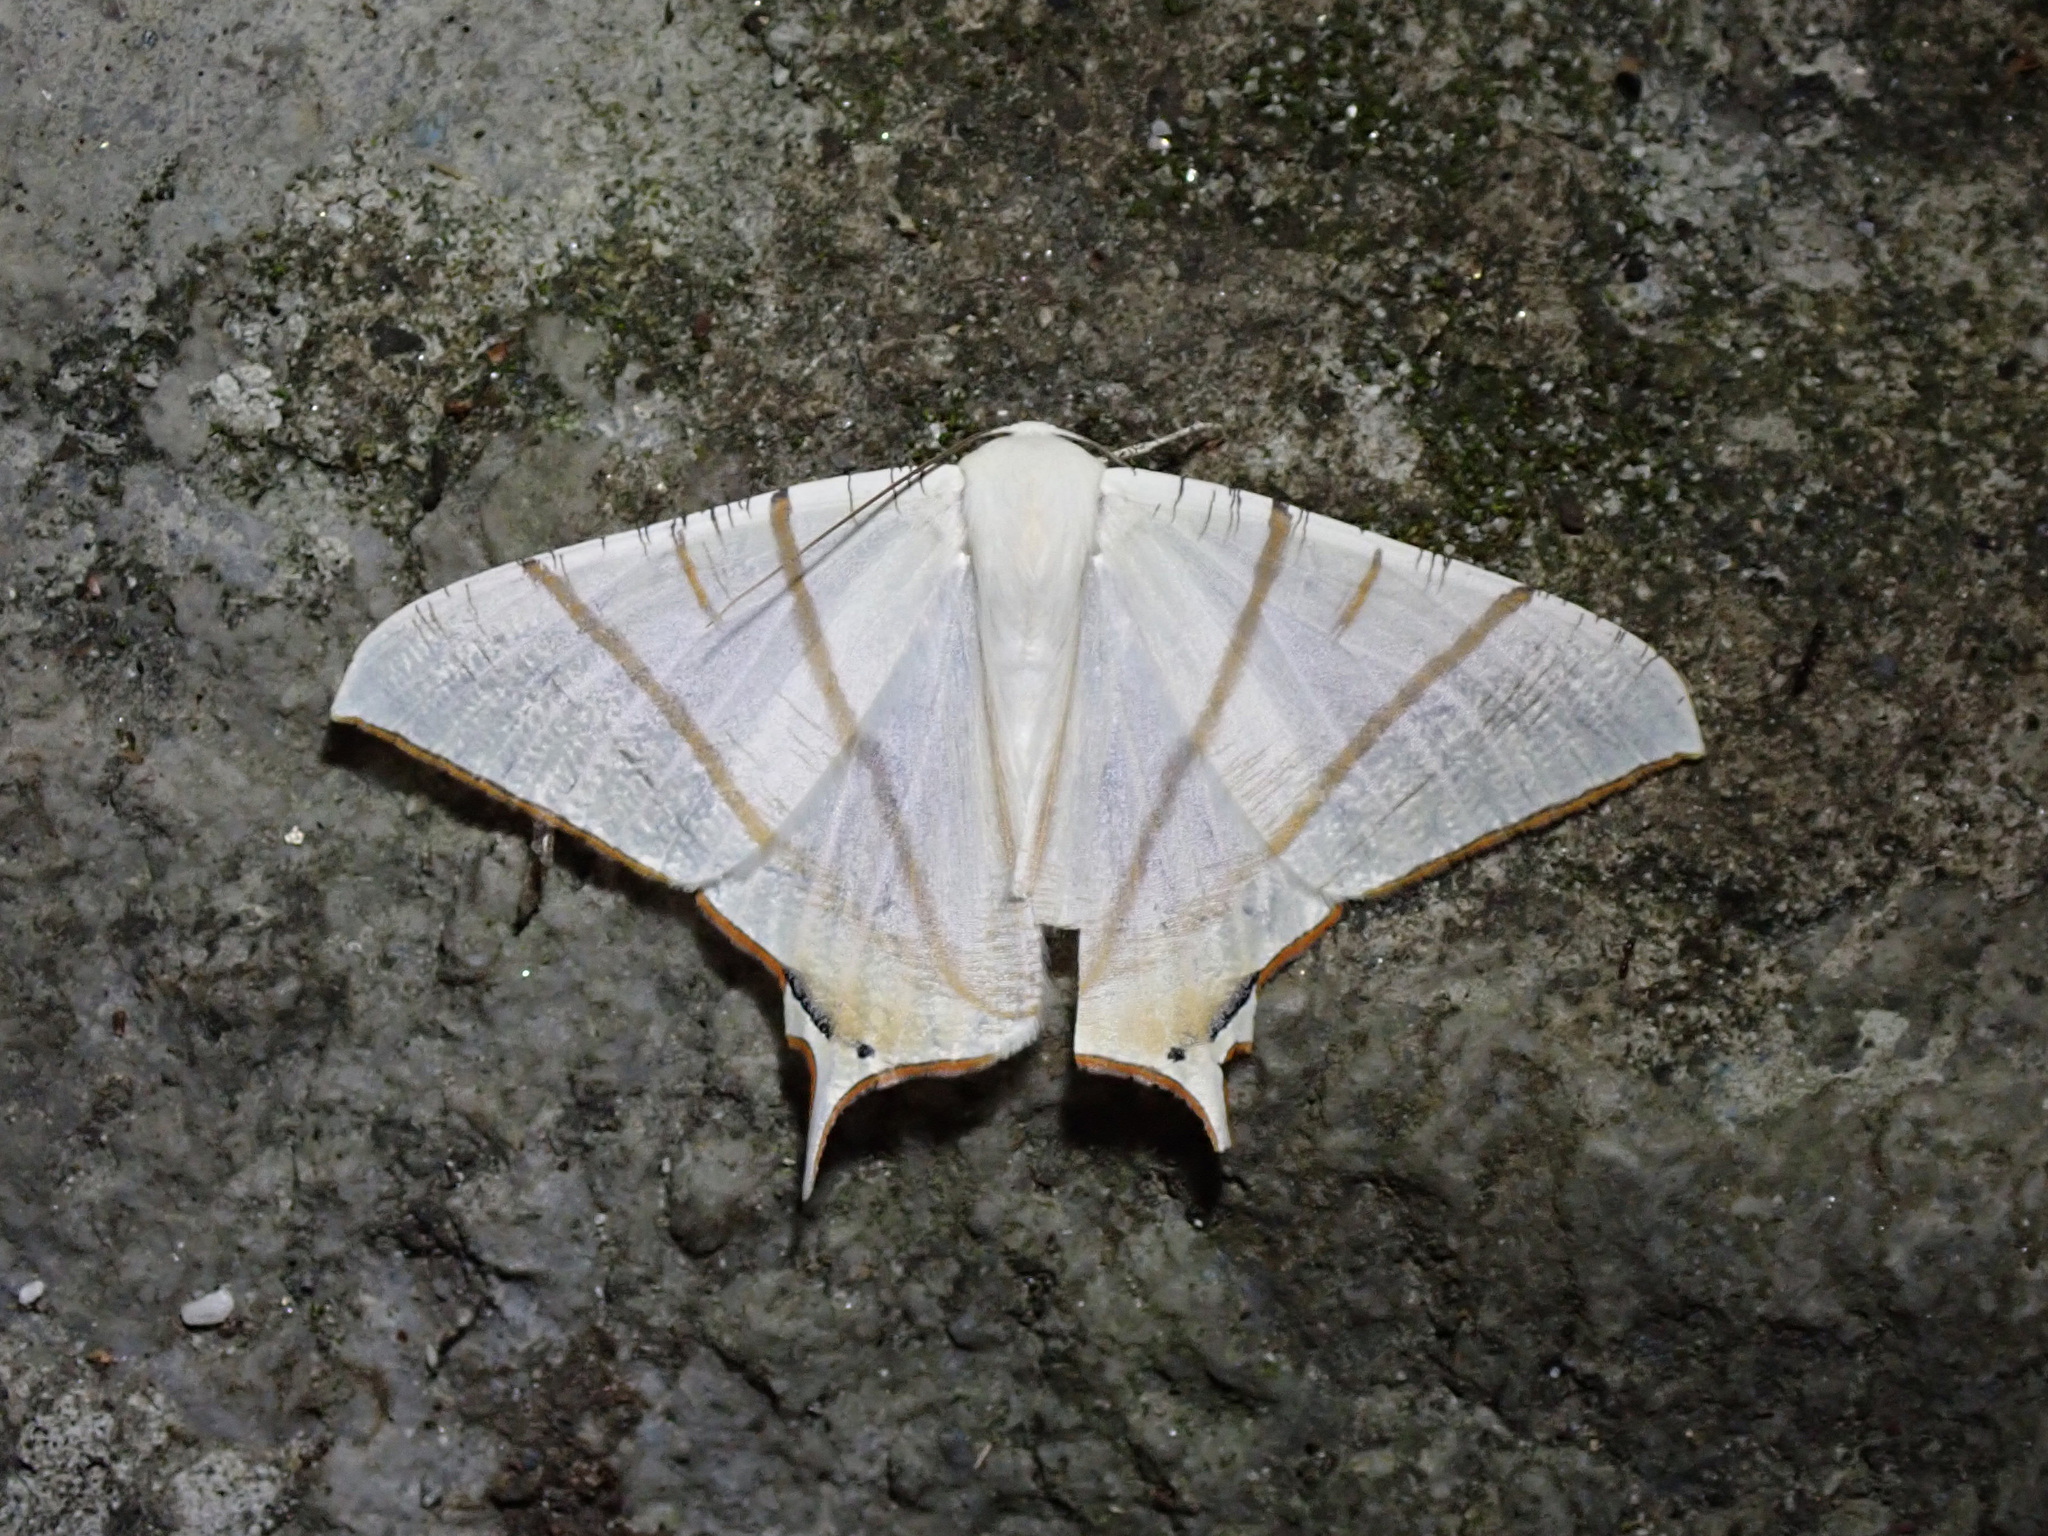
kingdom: Animalia
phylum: Arthropoda
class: Insecta
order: Lepidoptera
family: Geometridae
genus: Ourapteryx
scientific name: Ourapteryx clara
